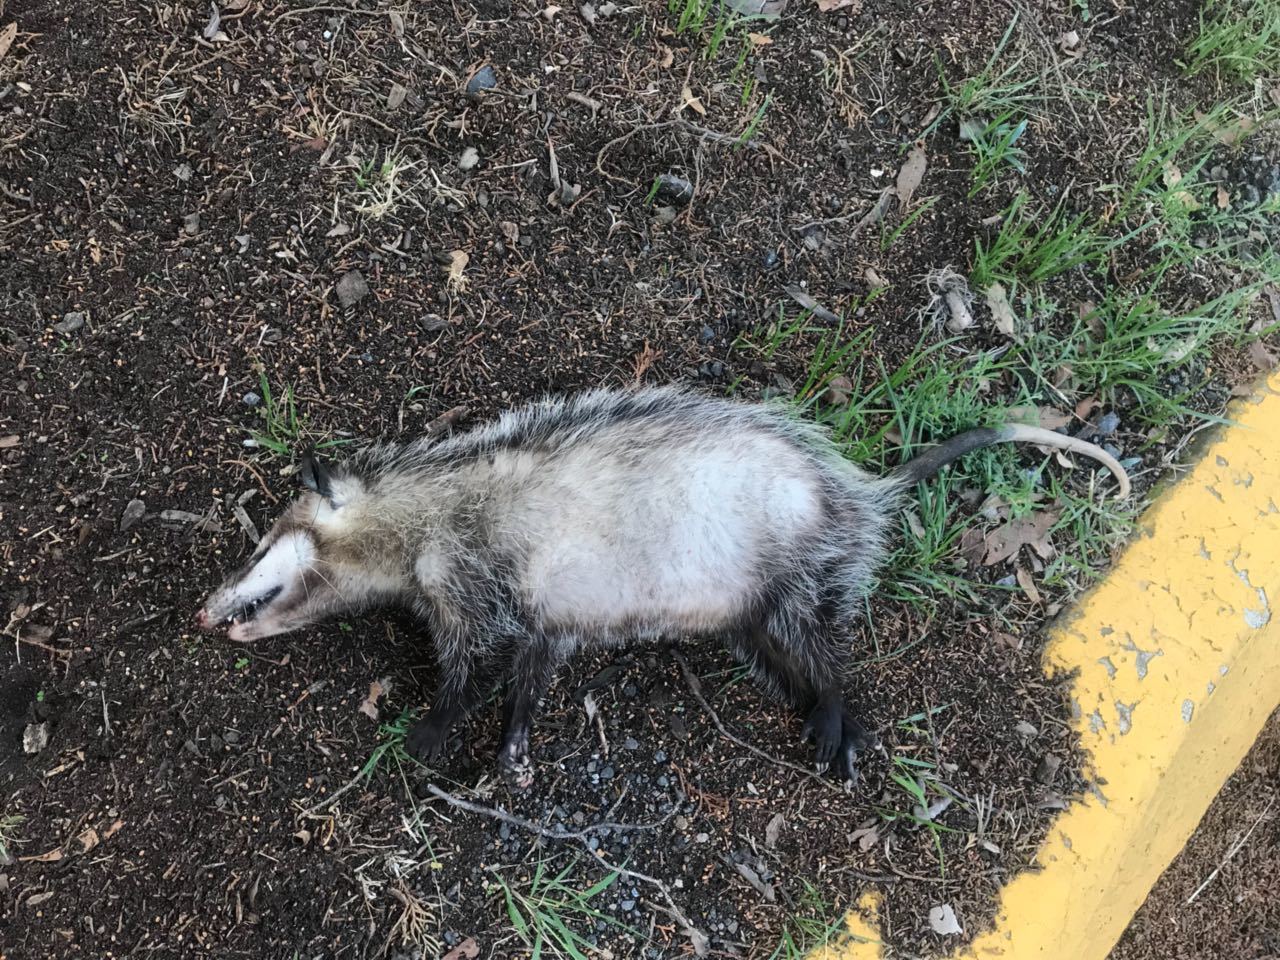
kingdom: Animalia
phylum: Chordata
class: Mammalia
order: Didelphimorphia
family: Didelphidae
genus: Didelphis
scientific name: Didelphis virginiana
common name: Virginia opossum
